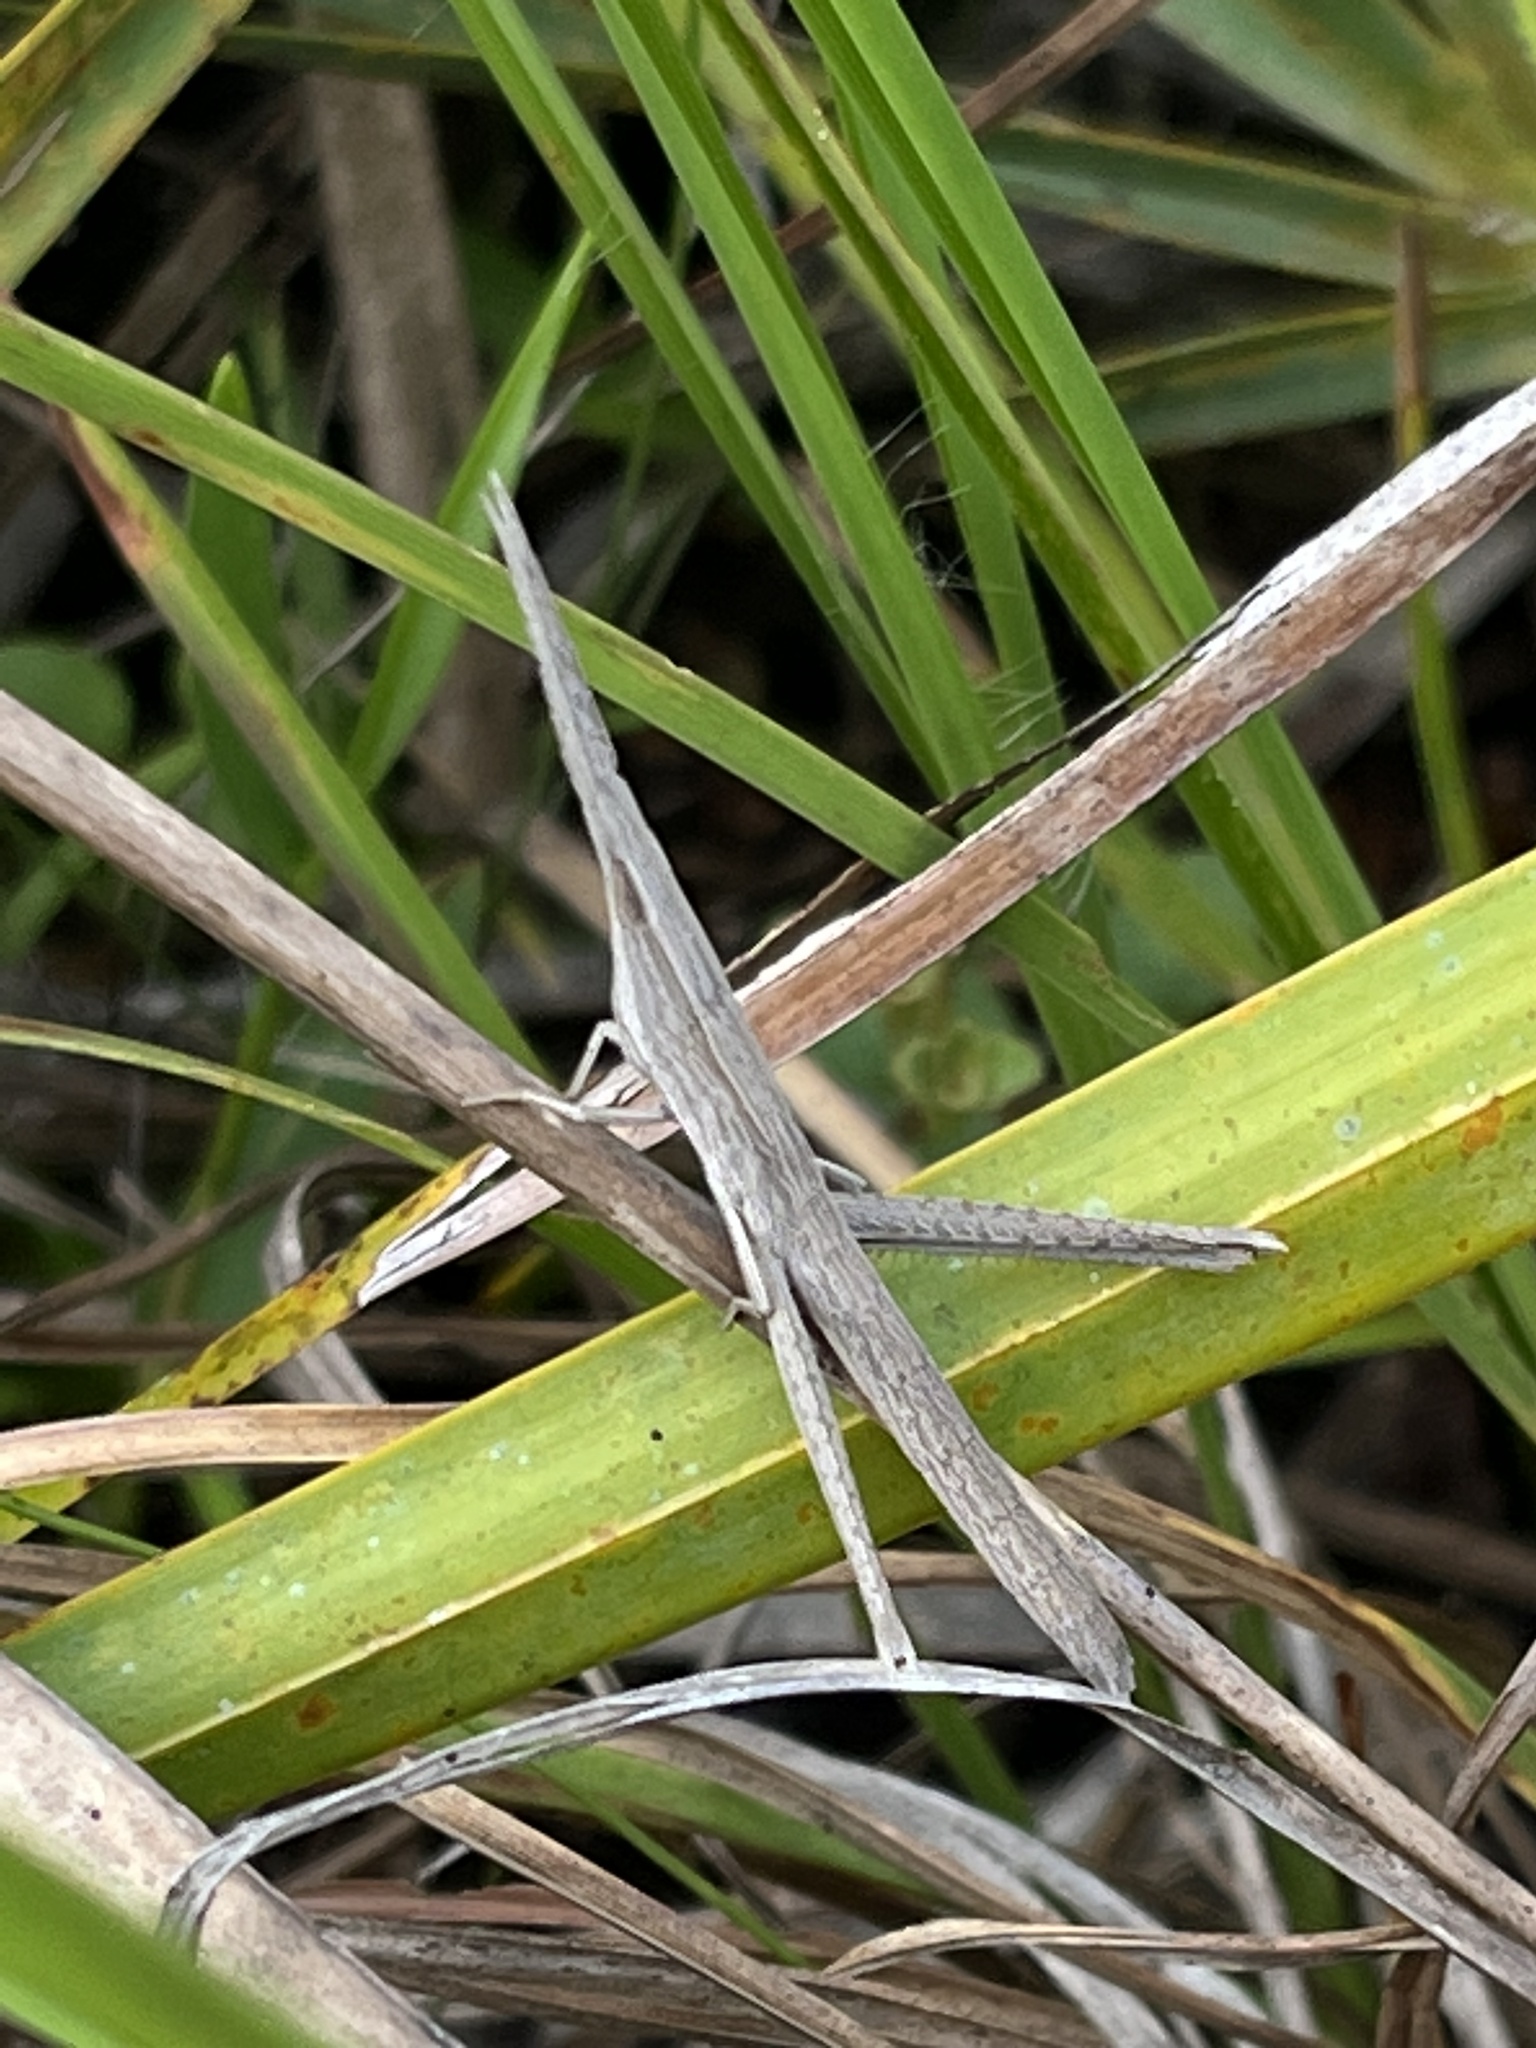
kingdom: Animalia
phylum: Arthropoda
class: Insecta
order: Orthoptera
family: Acrididae
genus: Achurum
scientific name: Achurum carinatum
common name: Long-headed toothpick grasshopper
